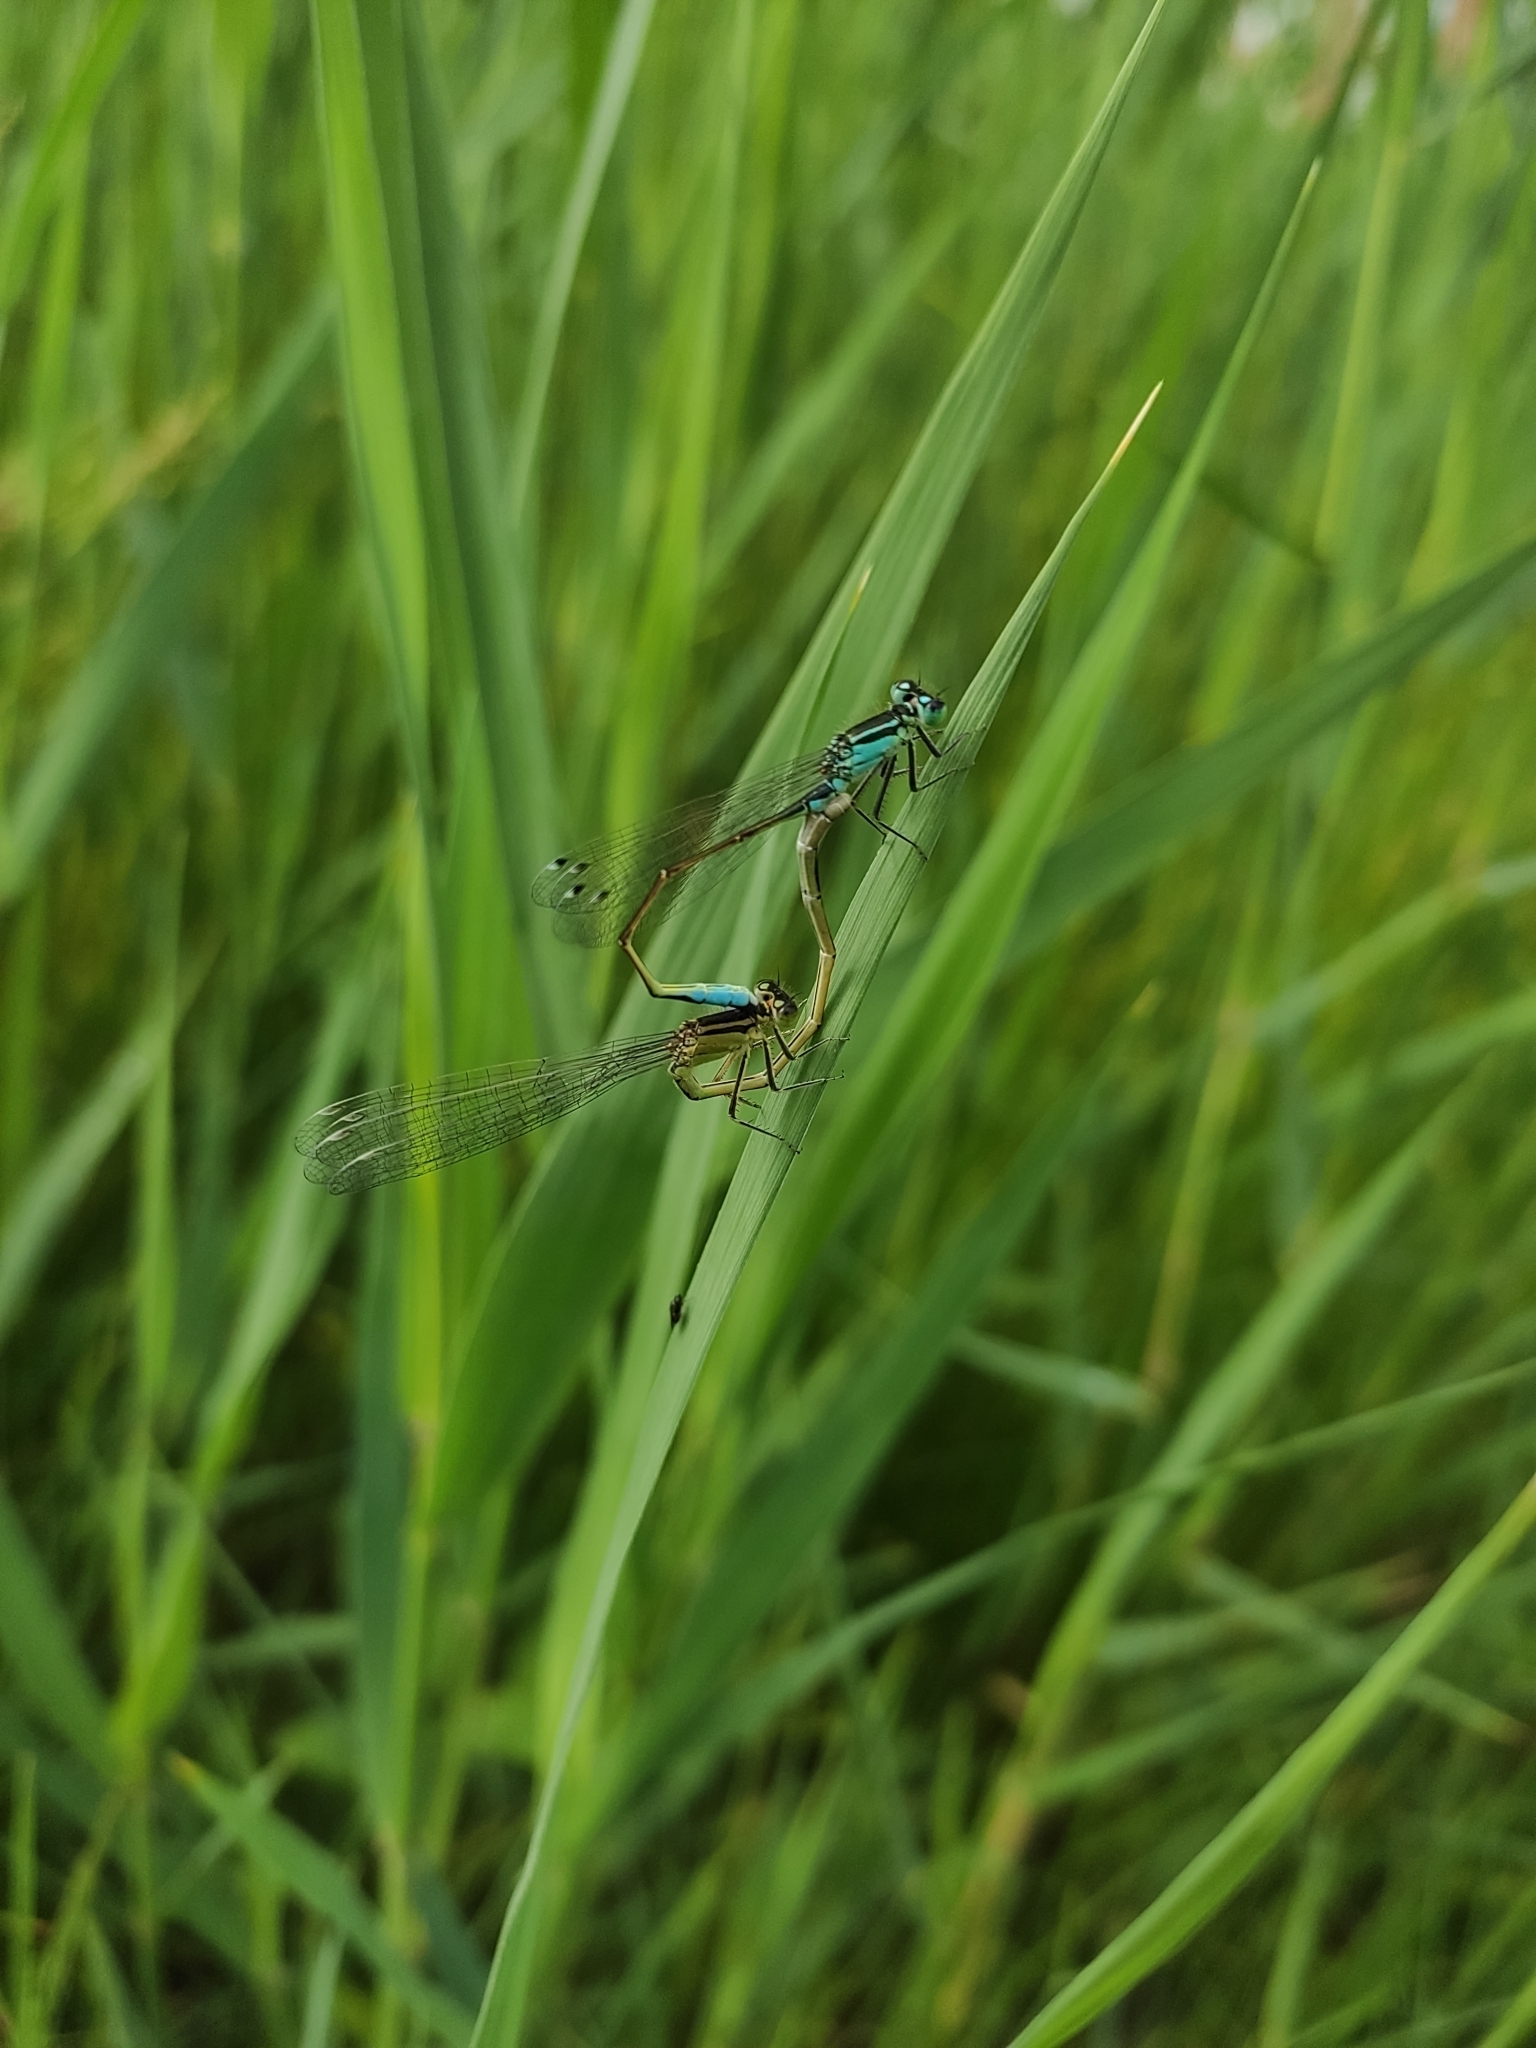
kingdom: Animalia
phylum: Arthropoda
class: Insecta
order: Odonata
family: Coenagrionidae
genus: Ischnura
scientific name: Ischnura elegans
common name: Blue-tailed damselfly
